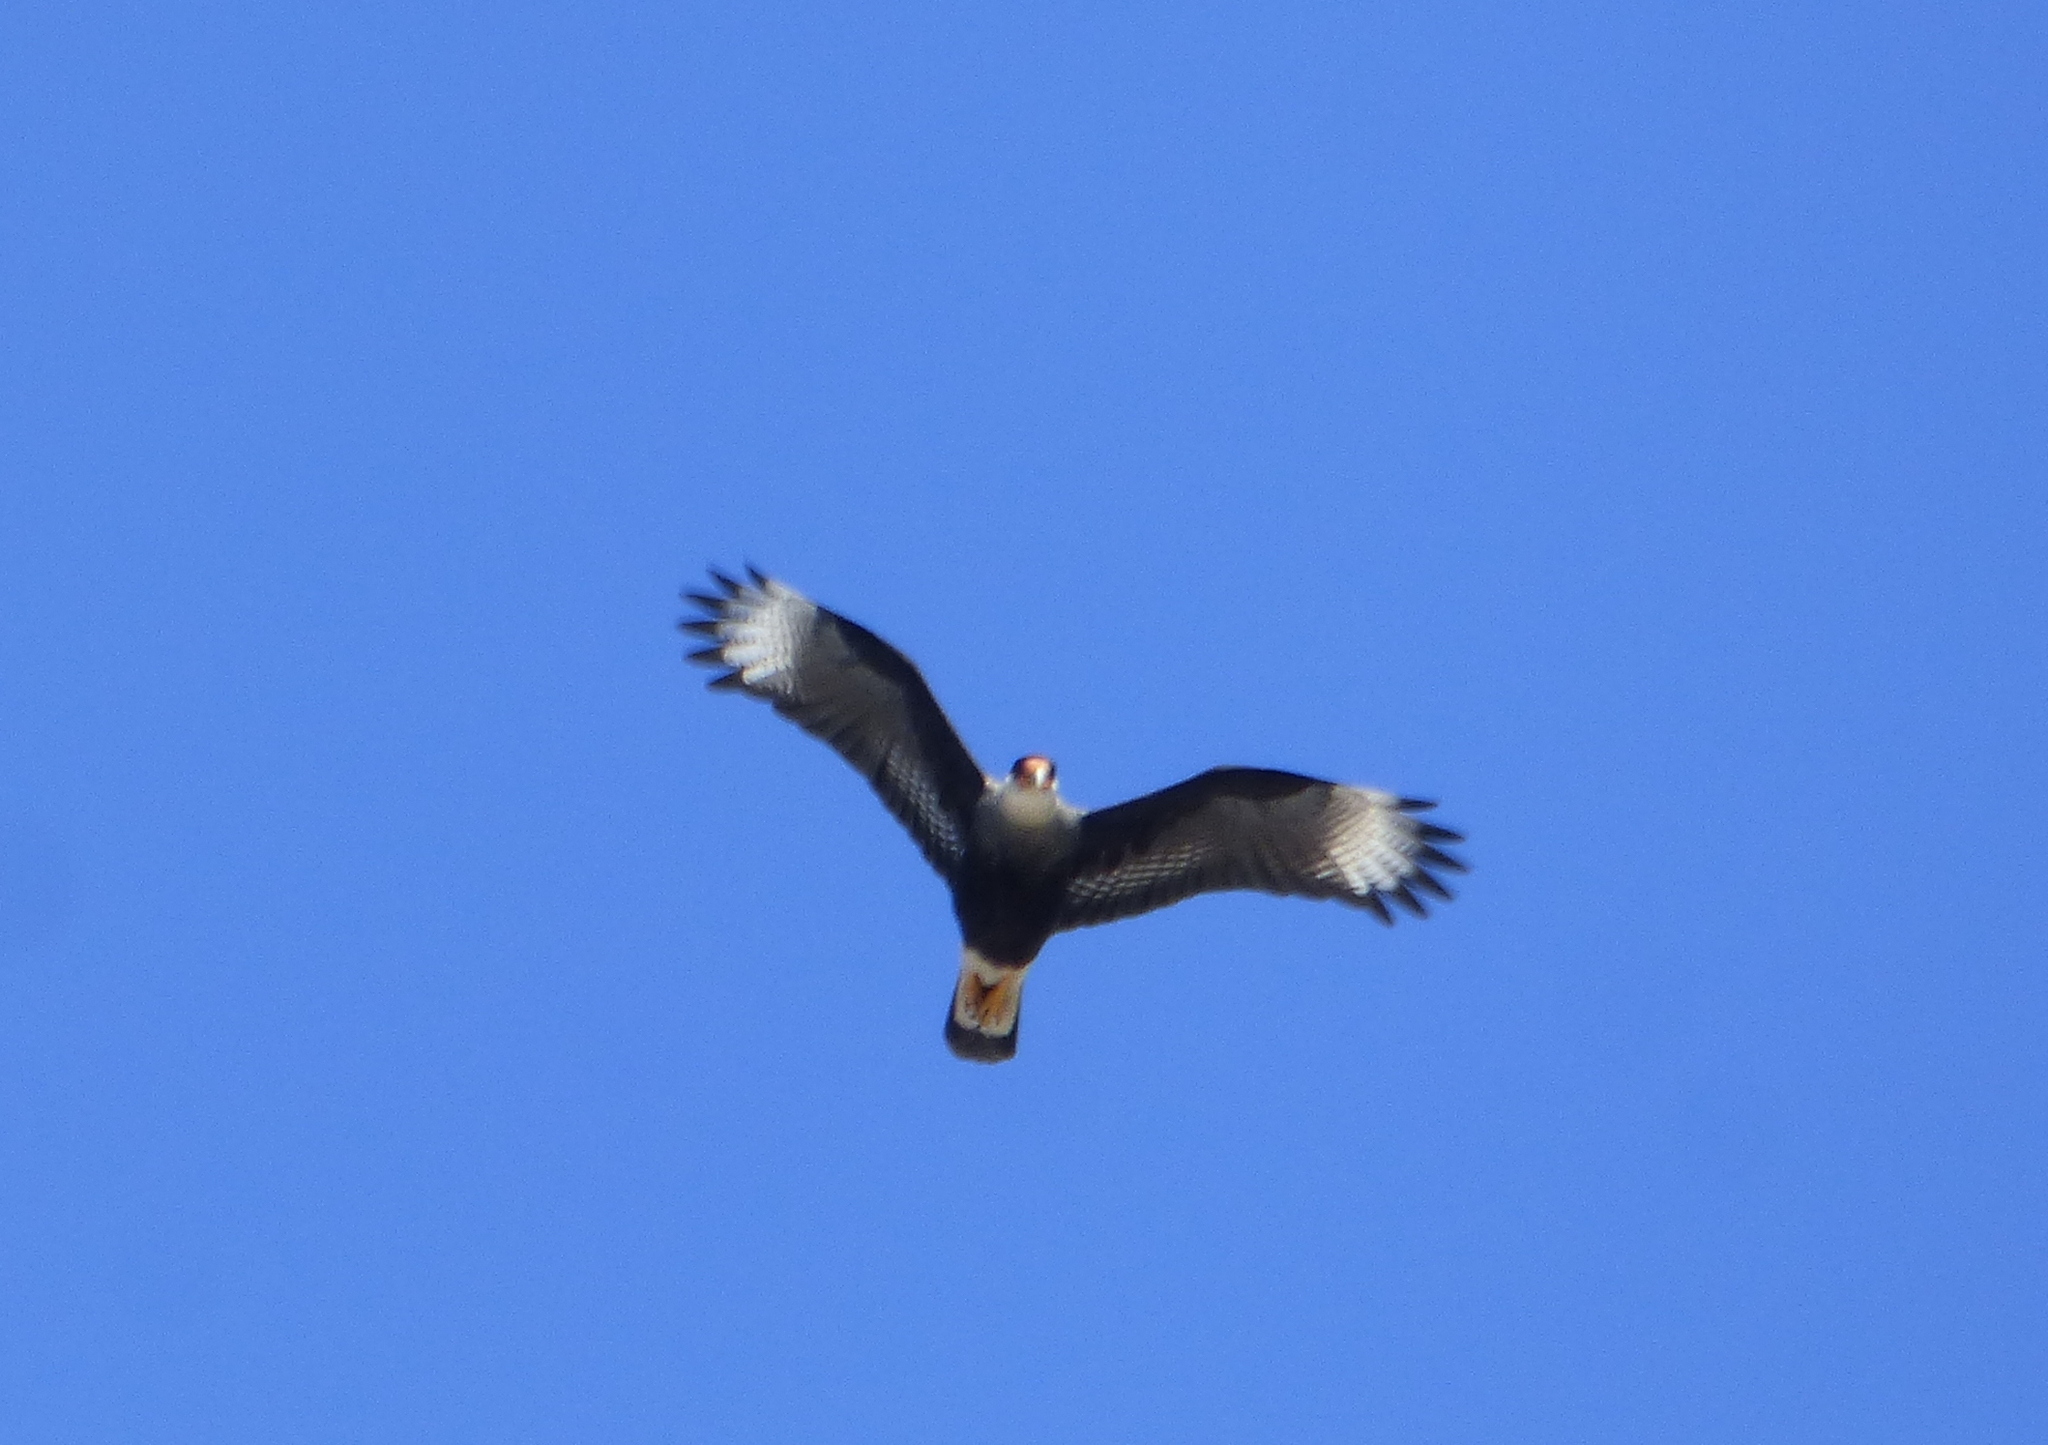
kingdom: Animalia
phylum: Chordata
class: Aves
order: Falconiformes
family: Falconidae
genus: Caracara
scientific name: Caracara plancus
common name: Southern caracara
